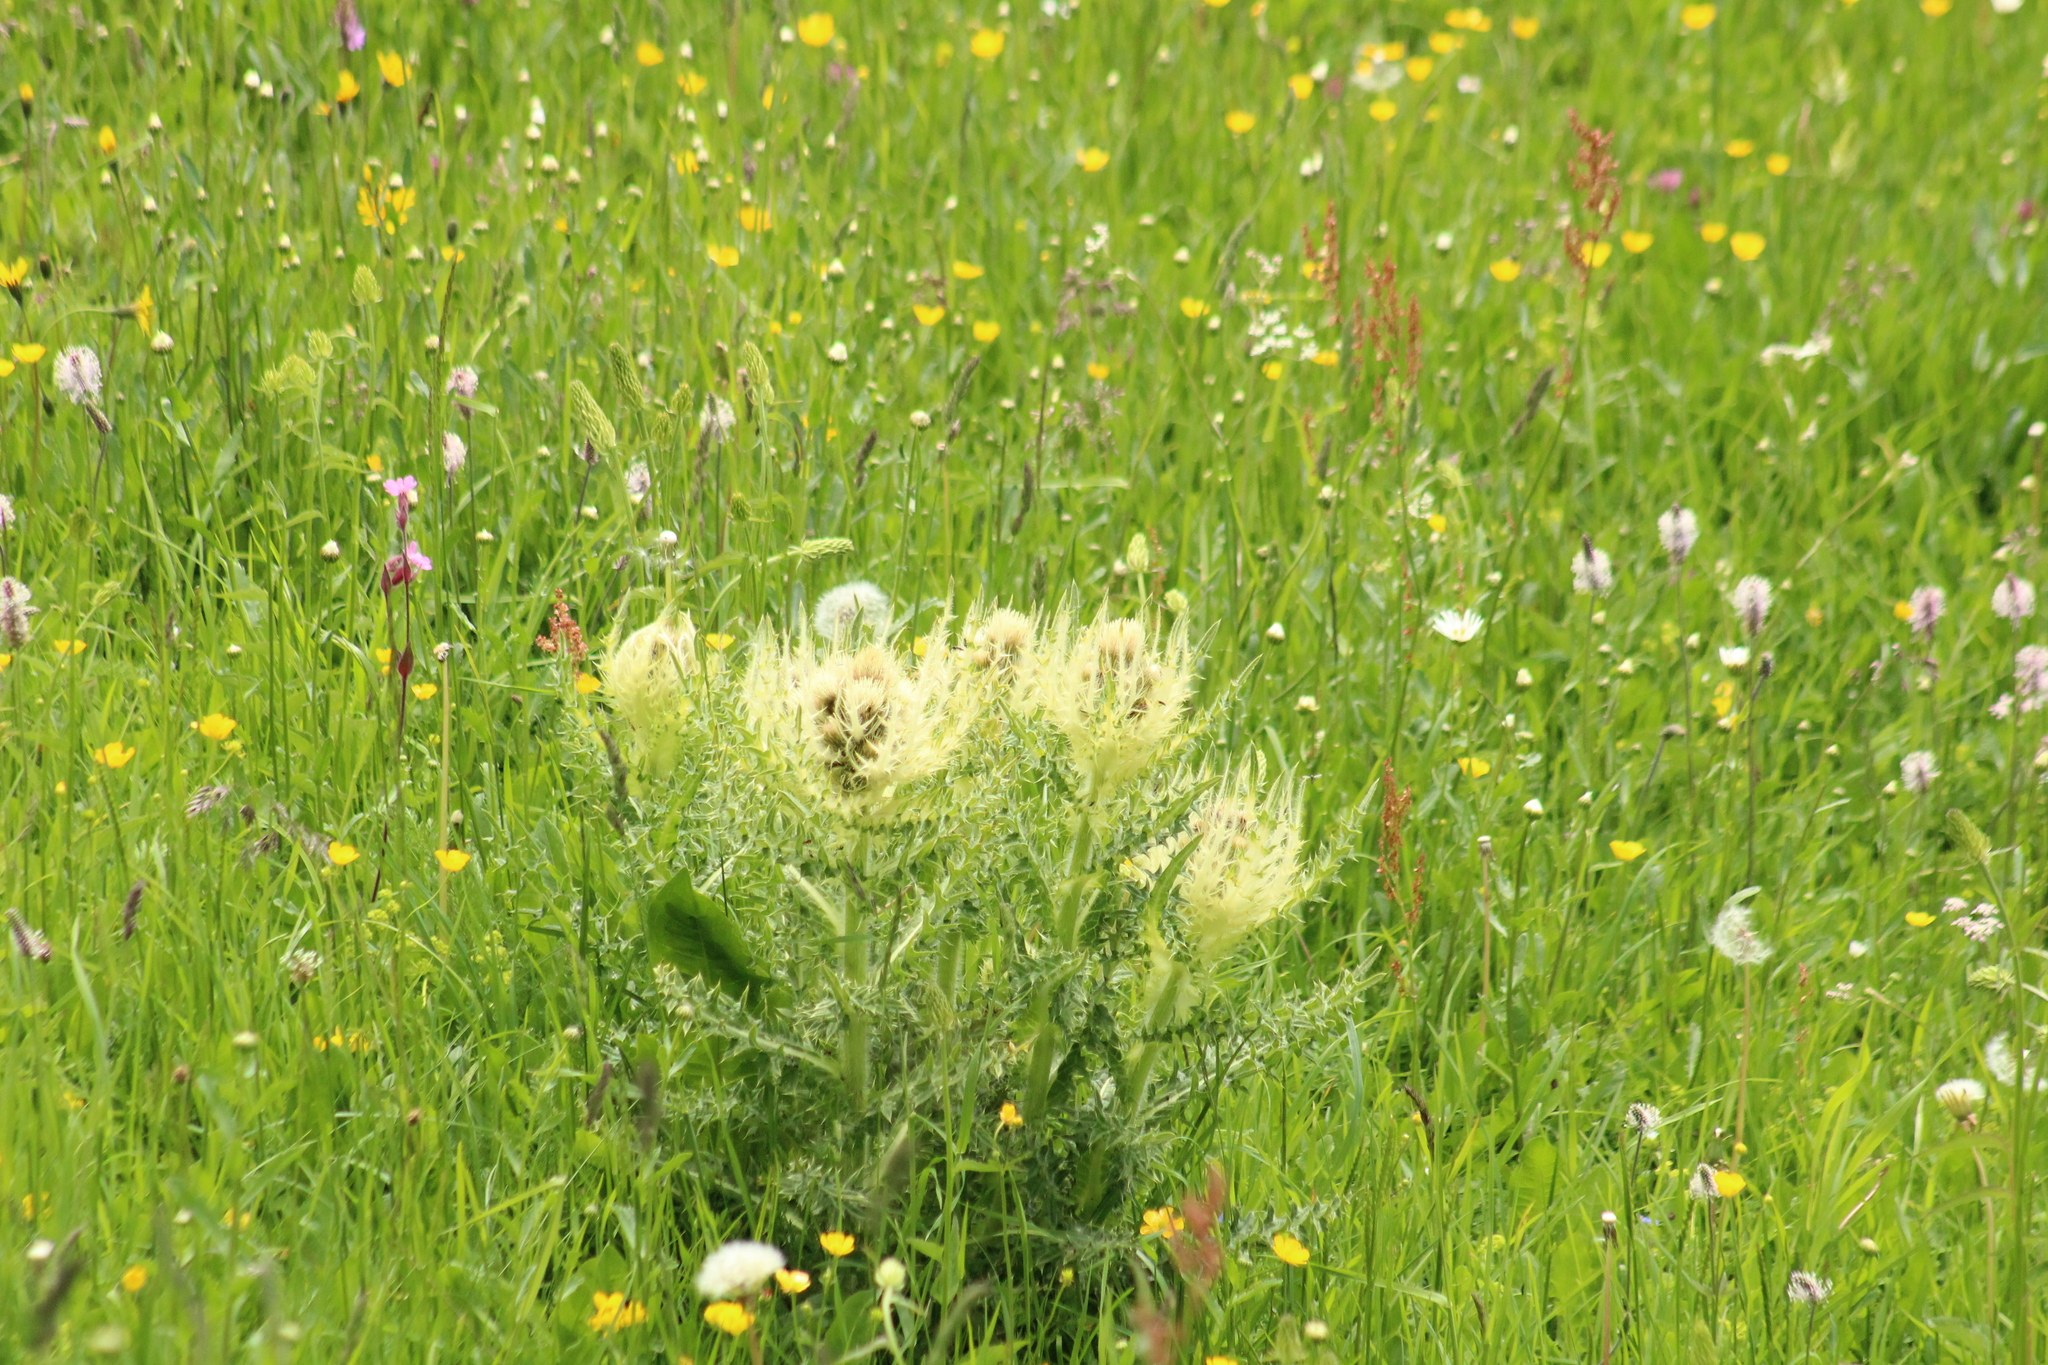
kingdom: Plantae
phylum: Tracheophyta
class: Magnoliopsida
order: Asterales
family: Asteraceae
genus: Cirsium
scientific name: Cirsium spinosissimum
